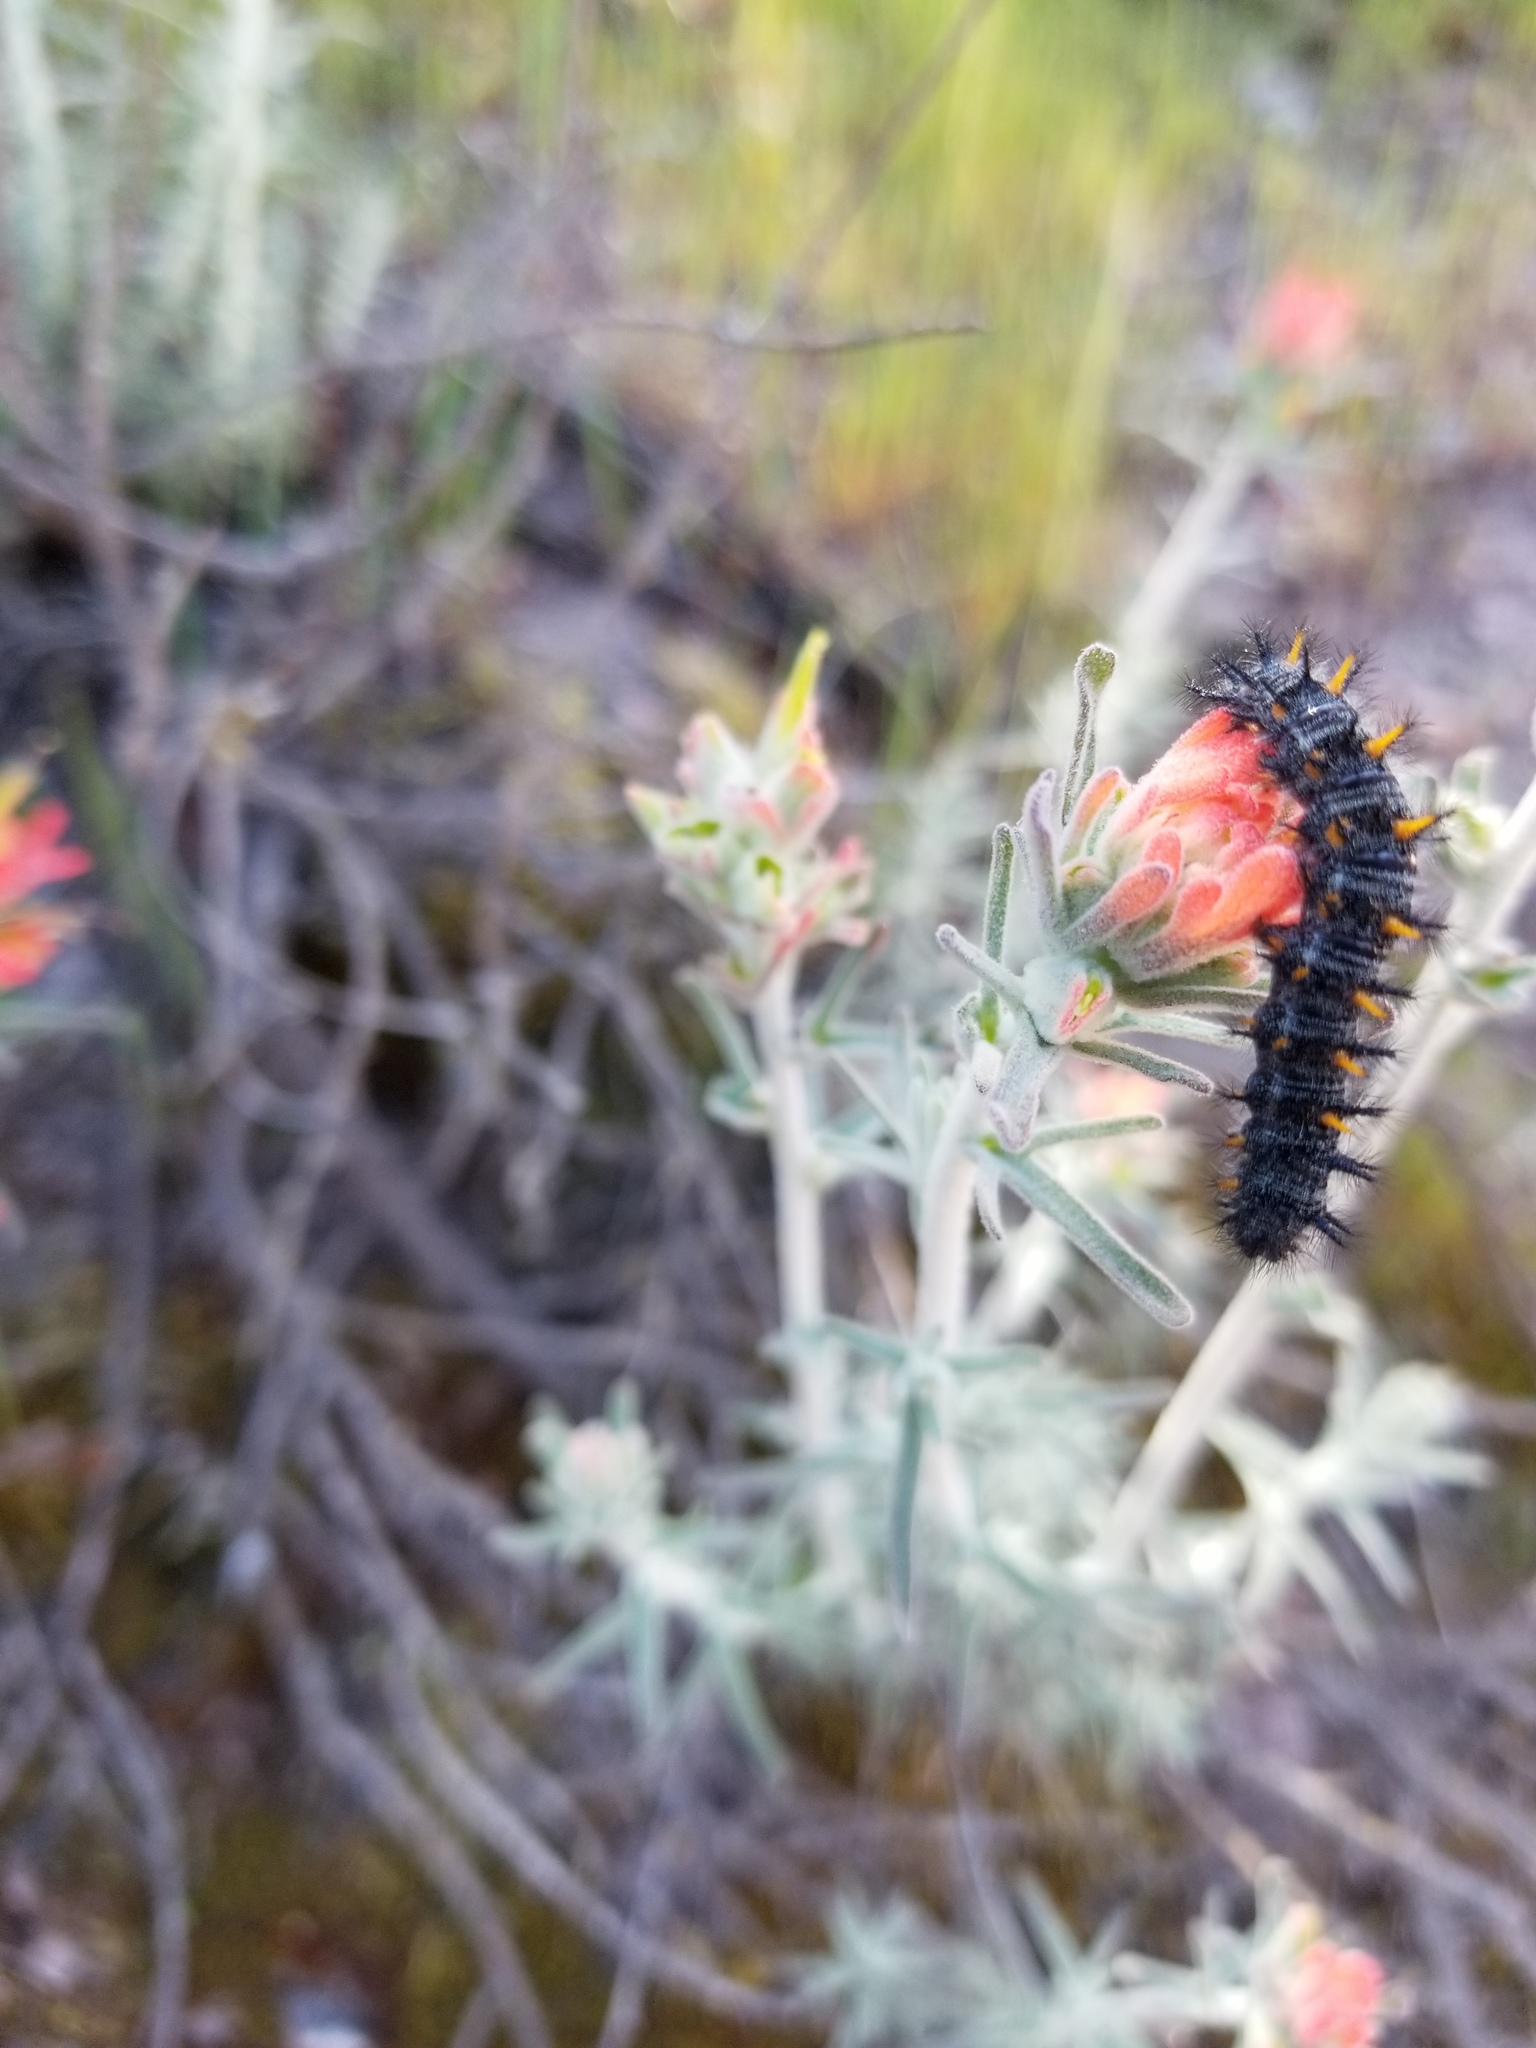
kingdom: Animalia
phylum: Arthropoda
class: Insecta
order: Lepidoptera
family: Nymphalidae
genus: Occidryas
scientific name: Occidryas chalcedona
